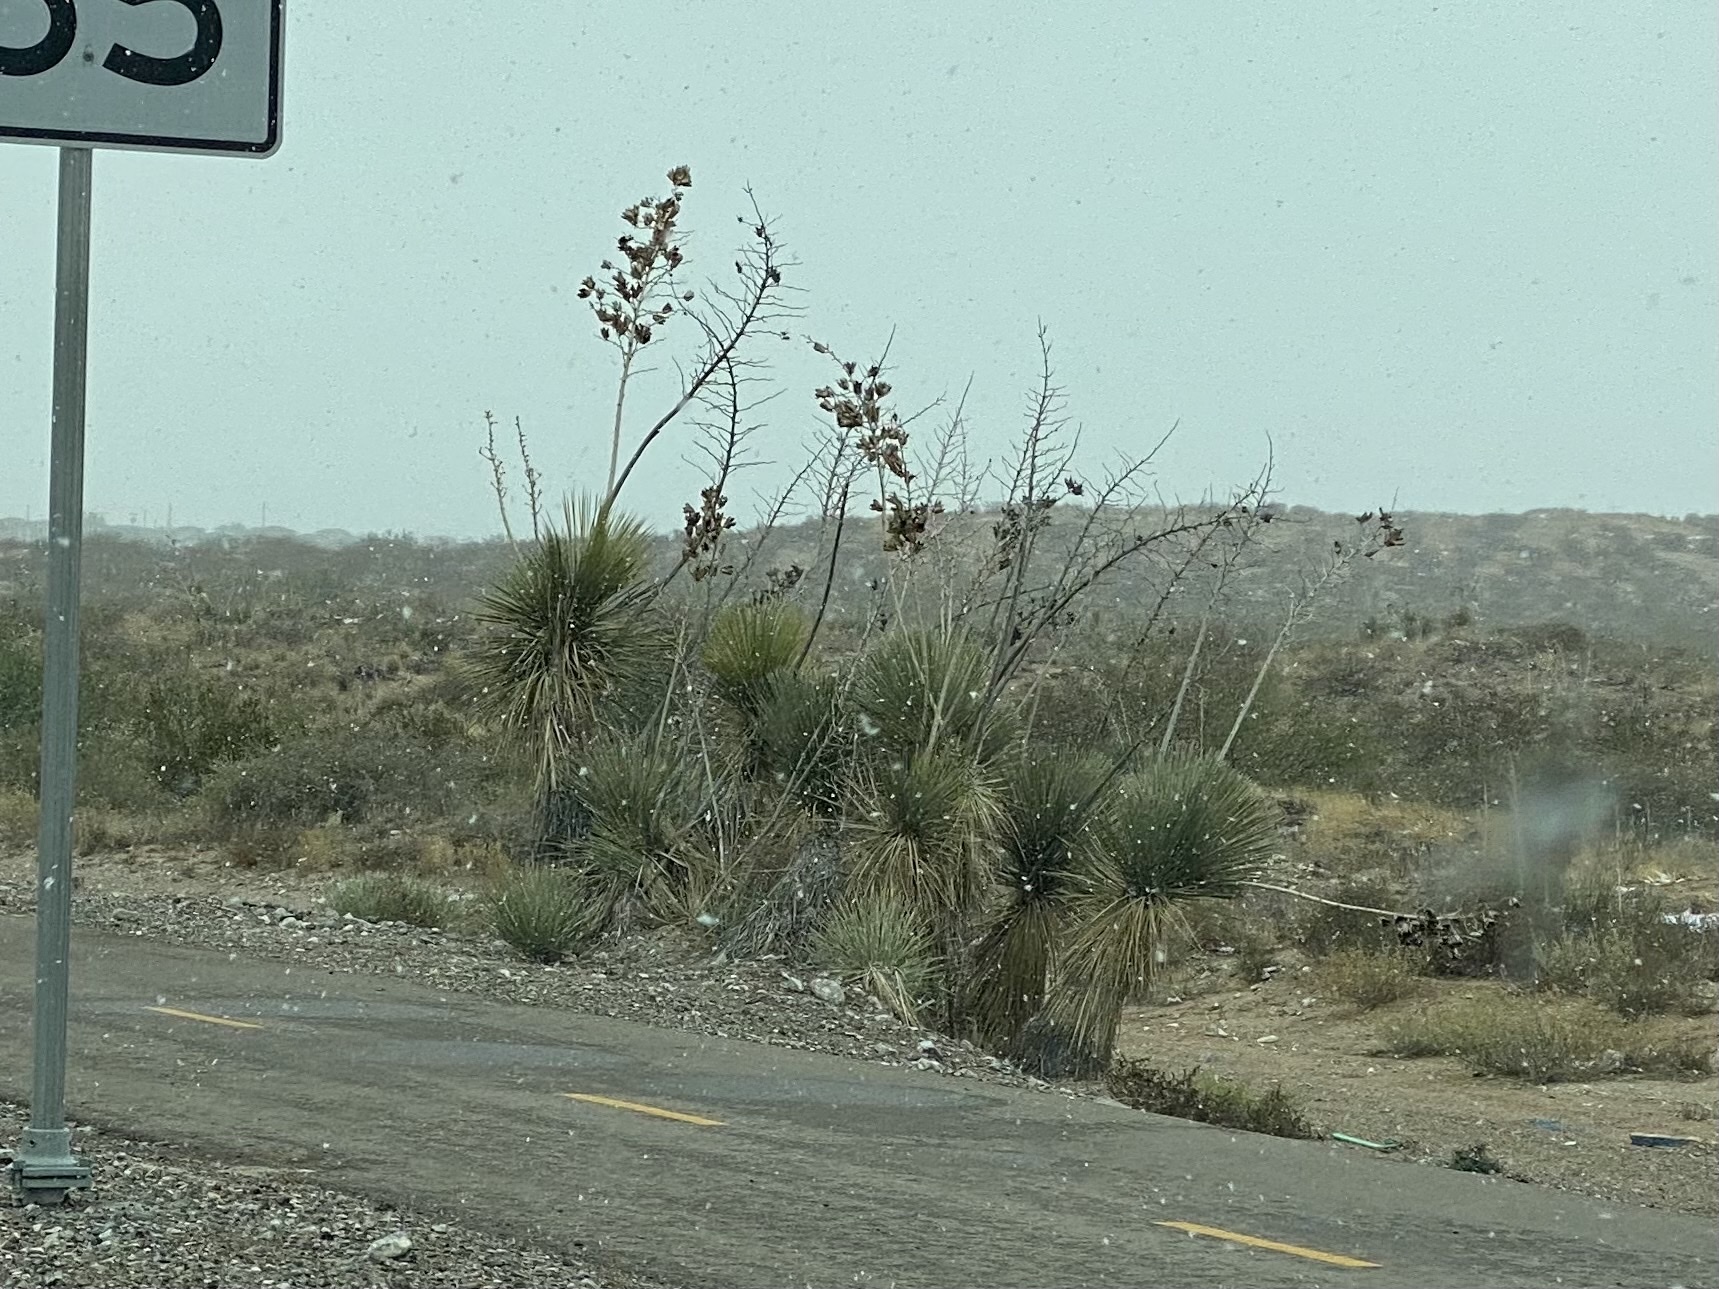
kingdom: Plantae
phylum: Tracheophyta
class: Liliopsida
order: Asparagales
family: Asparagaceae
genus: Yucca
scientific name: Yucca elata
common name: Palmella
